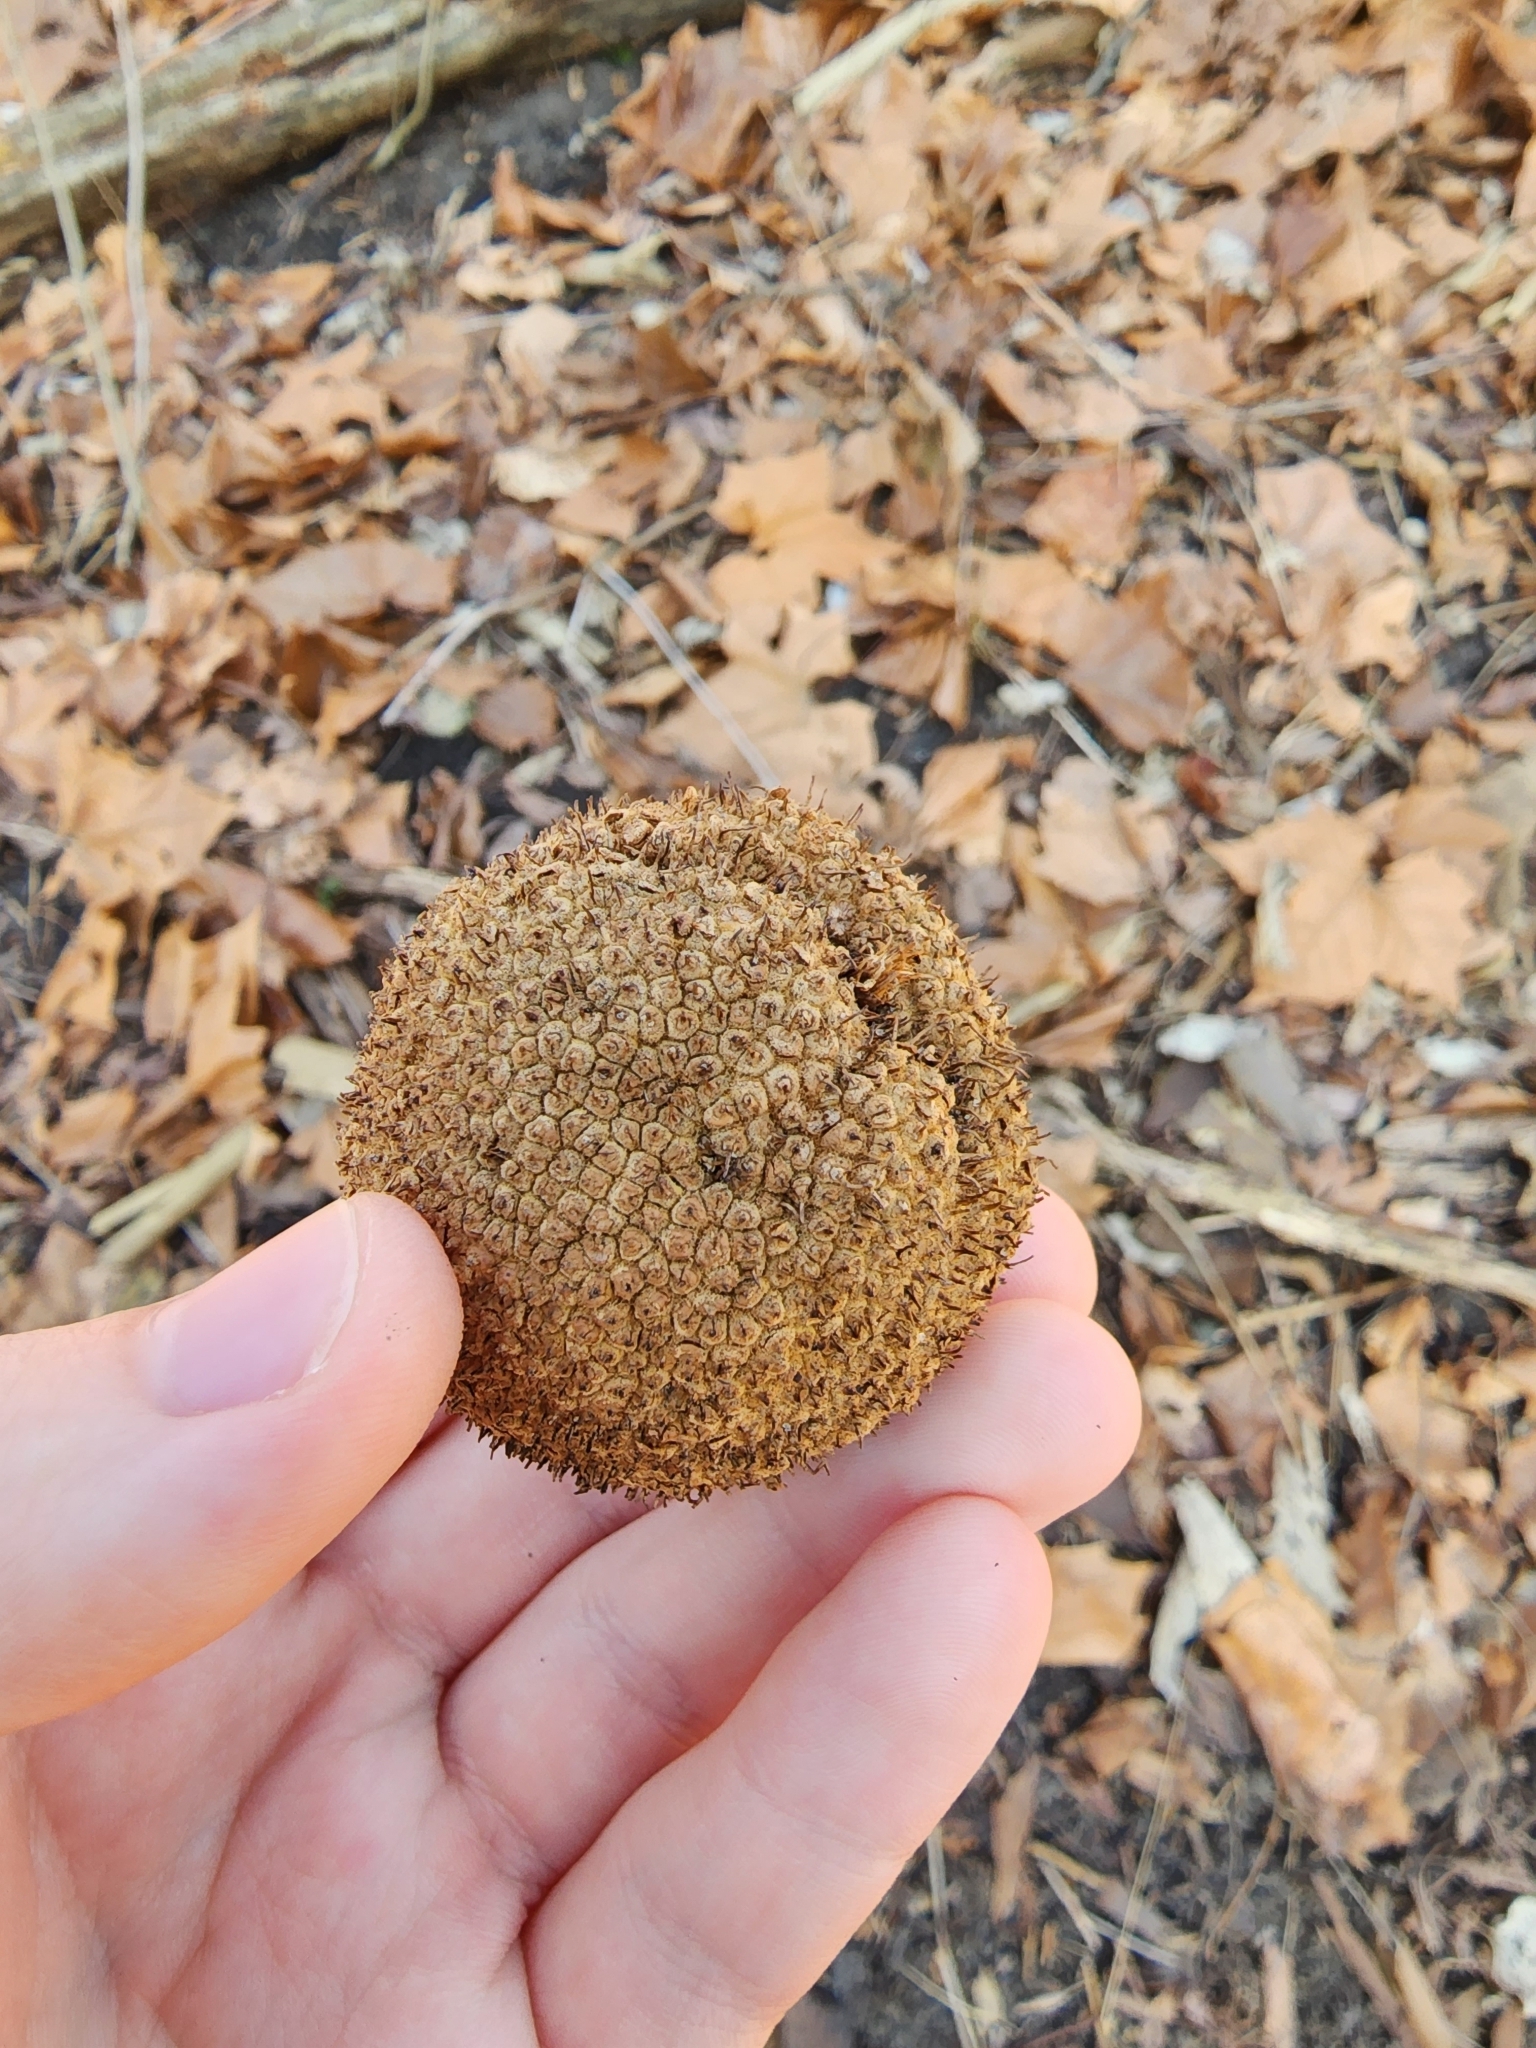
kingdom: Plantae
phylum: Tracheophyta
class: Magnoliopsida
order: Proteales
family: Platanaceae
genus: Platanus
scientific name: Platanus occidentalis
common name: American sycamore
